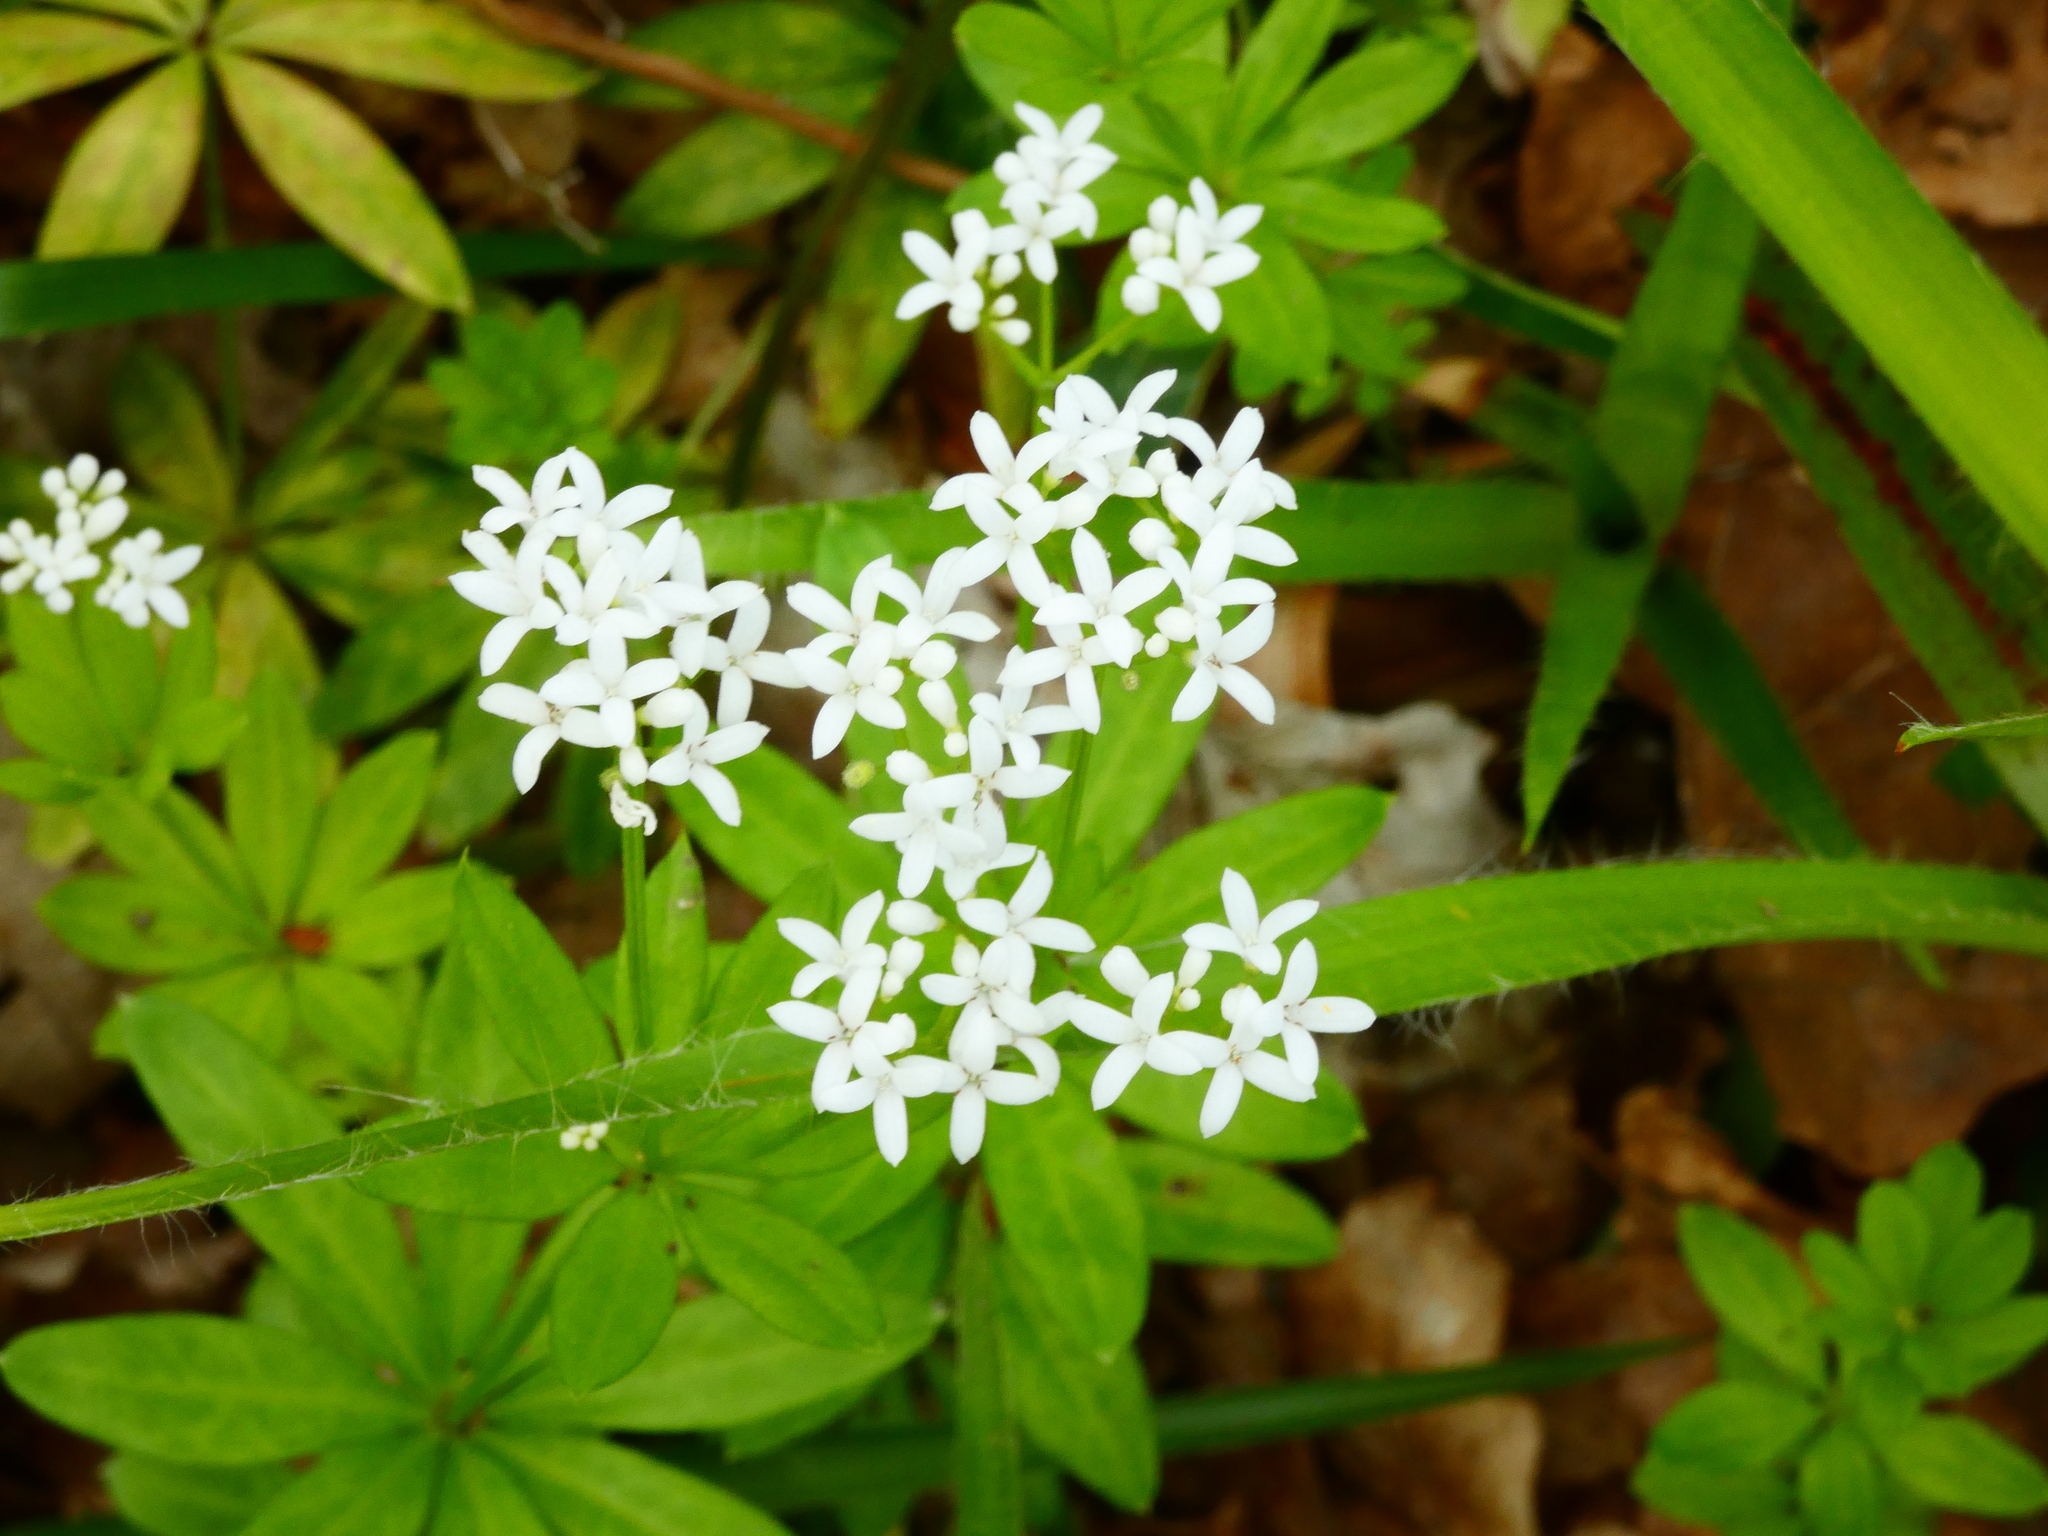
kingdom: Plantae
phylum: Tracheophyta
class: Magnoliopsida
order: Gentianales
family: Rubiaceae
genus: Galium
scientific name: Galium odoratum
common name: Sweet woodruff
